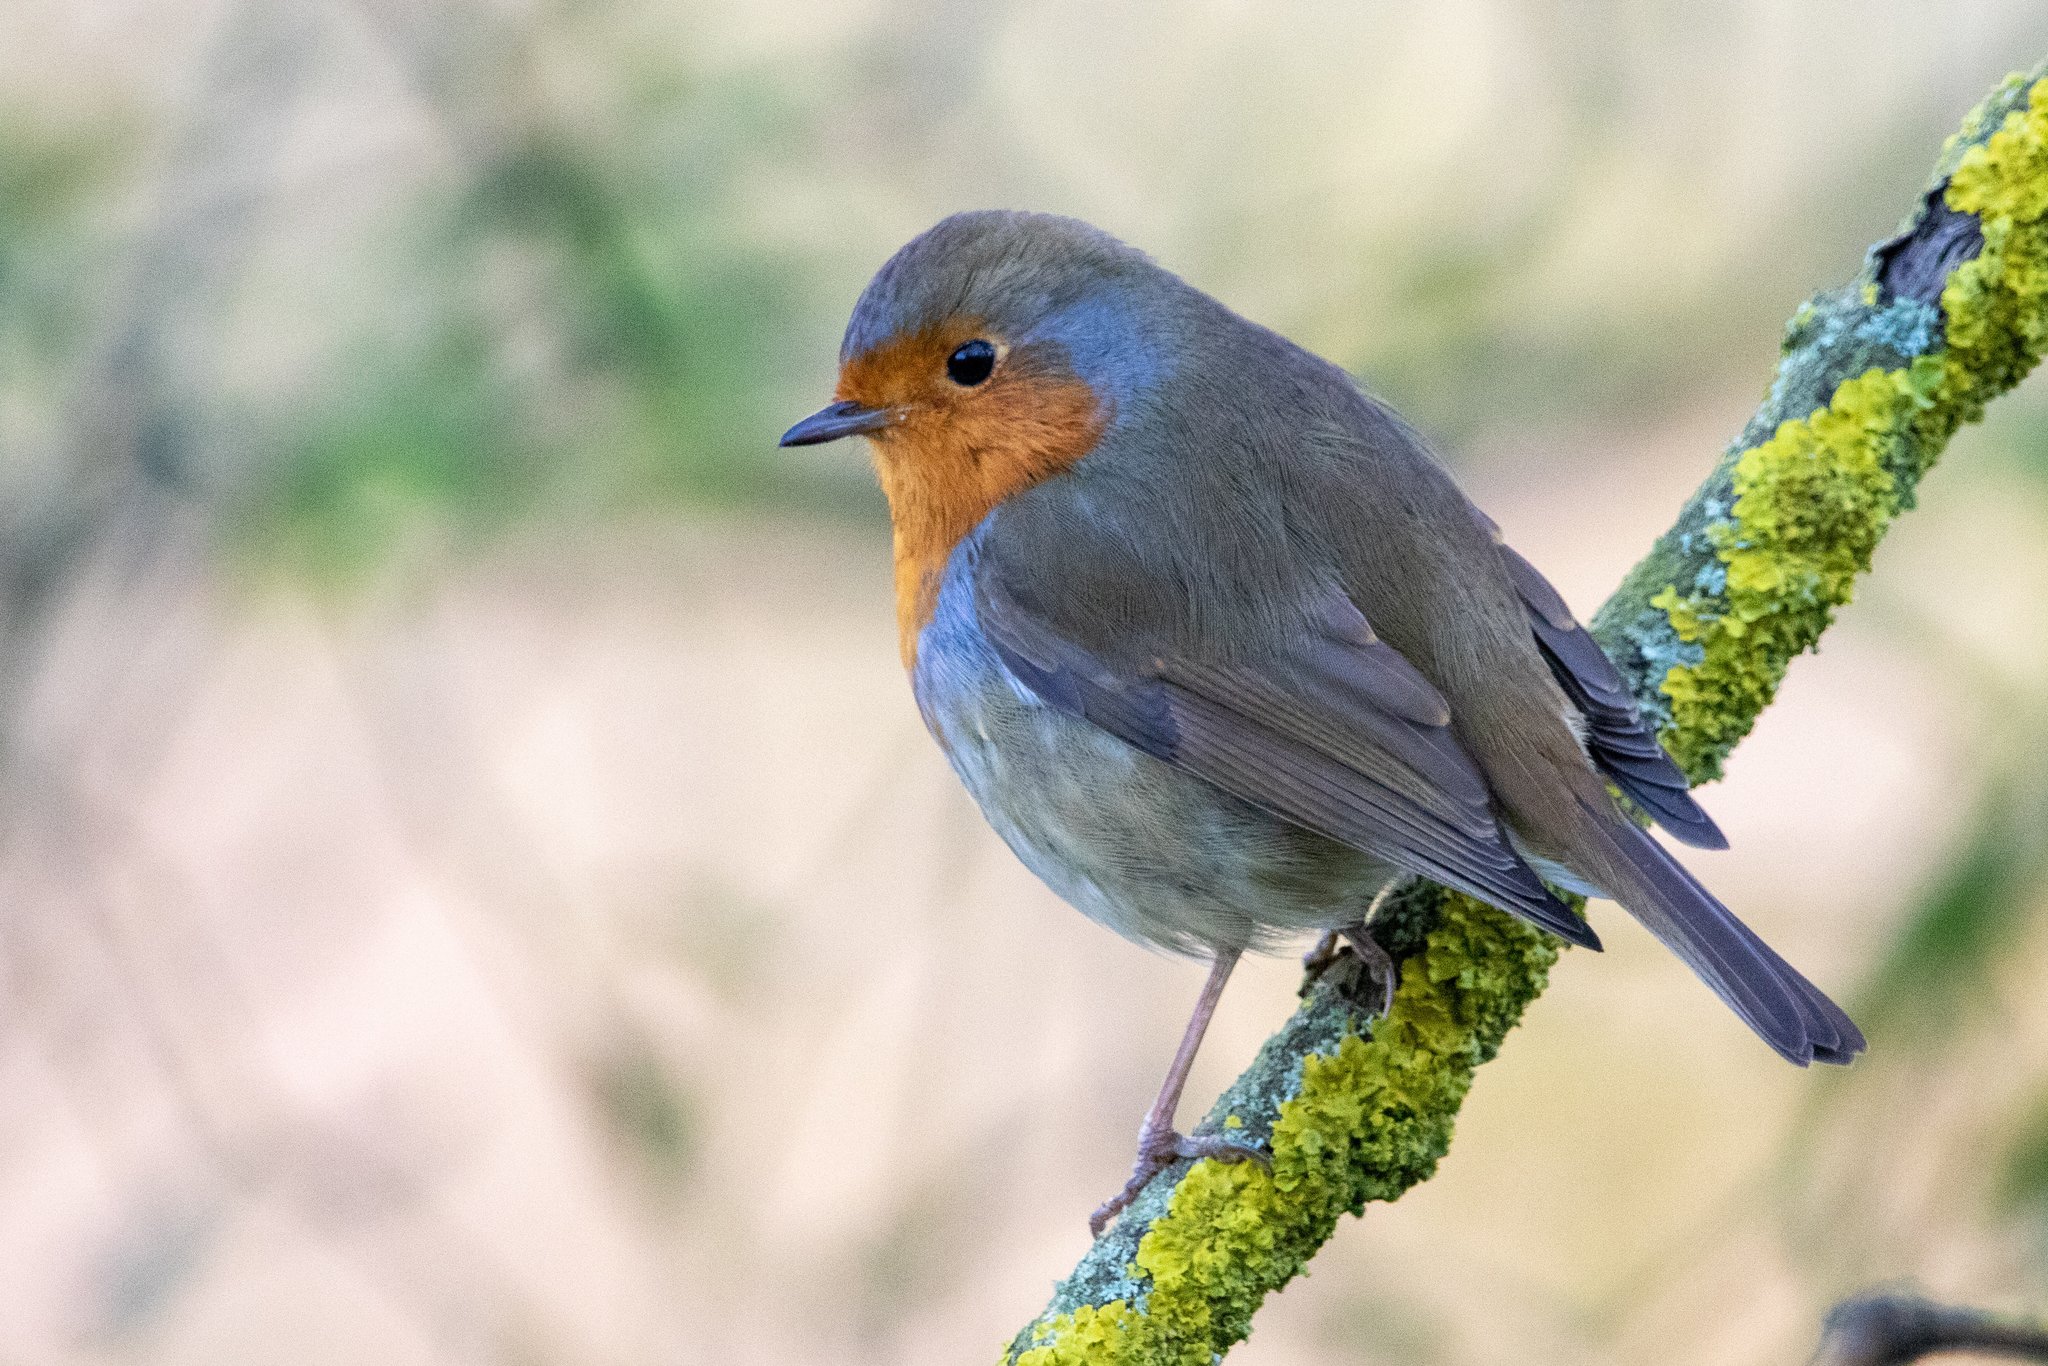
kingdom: Animalia
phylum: Chordata
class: Aves
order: Passeriformes
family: Muscicapidae
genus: Erithacus
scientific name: Erithacus rubecula
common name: European robin
